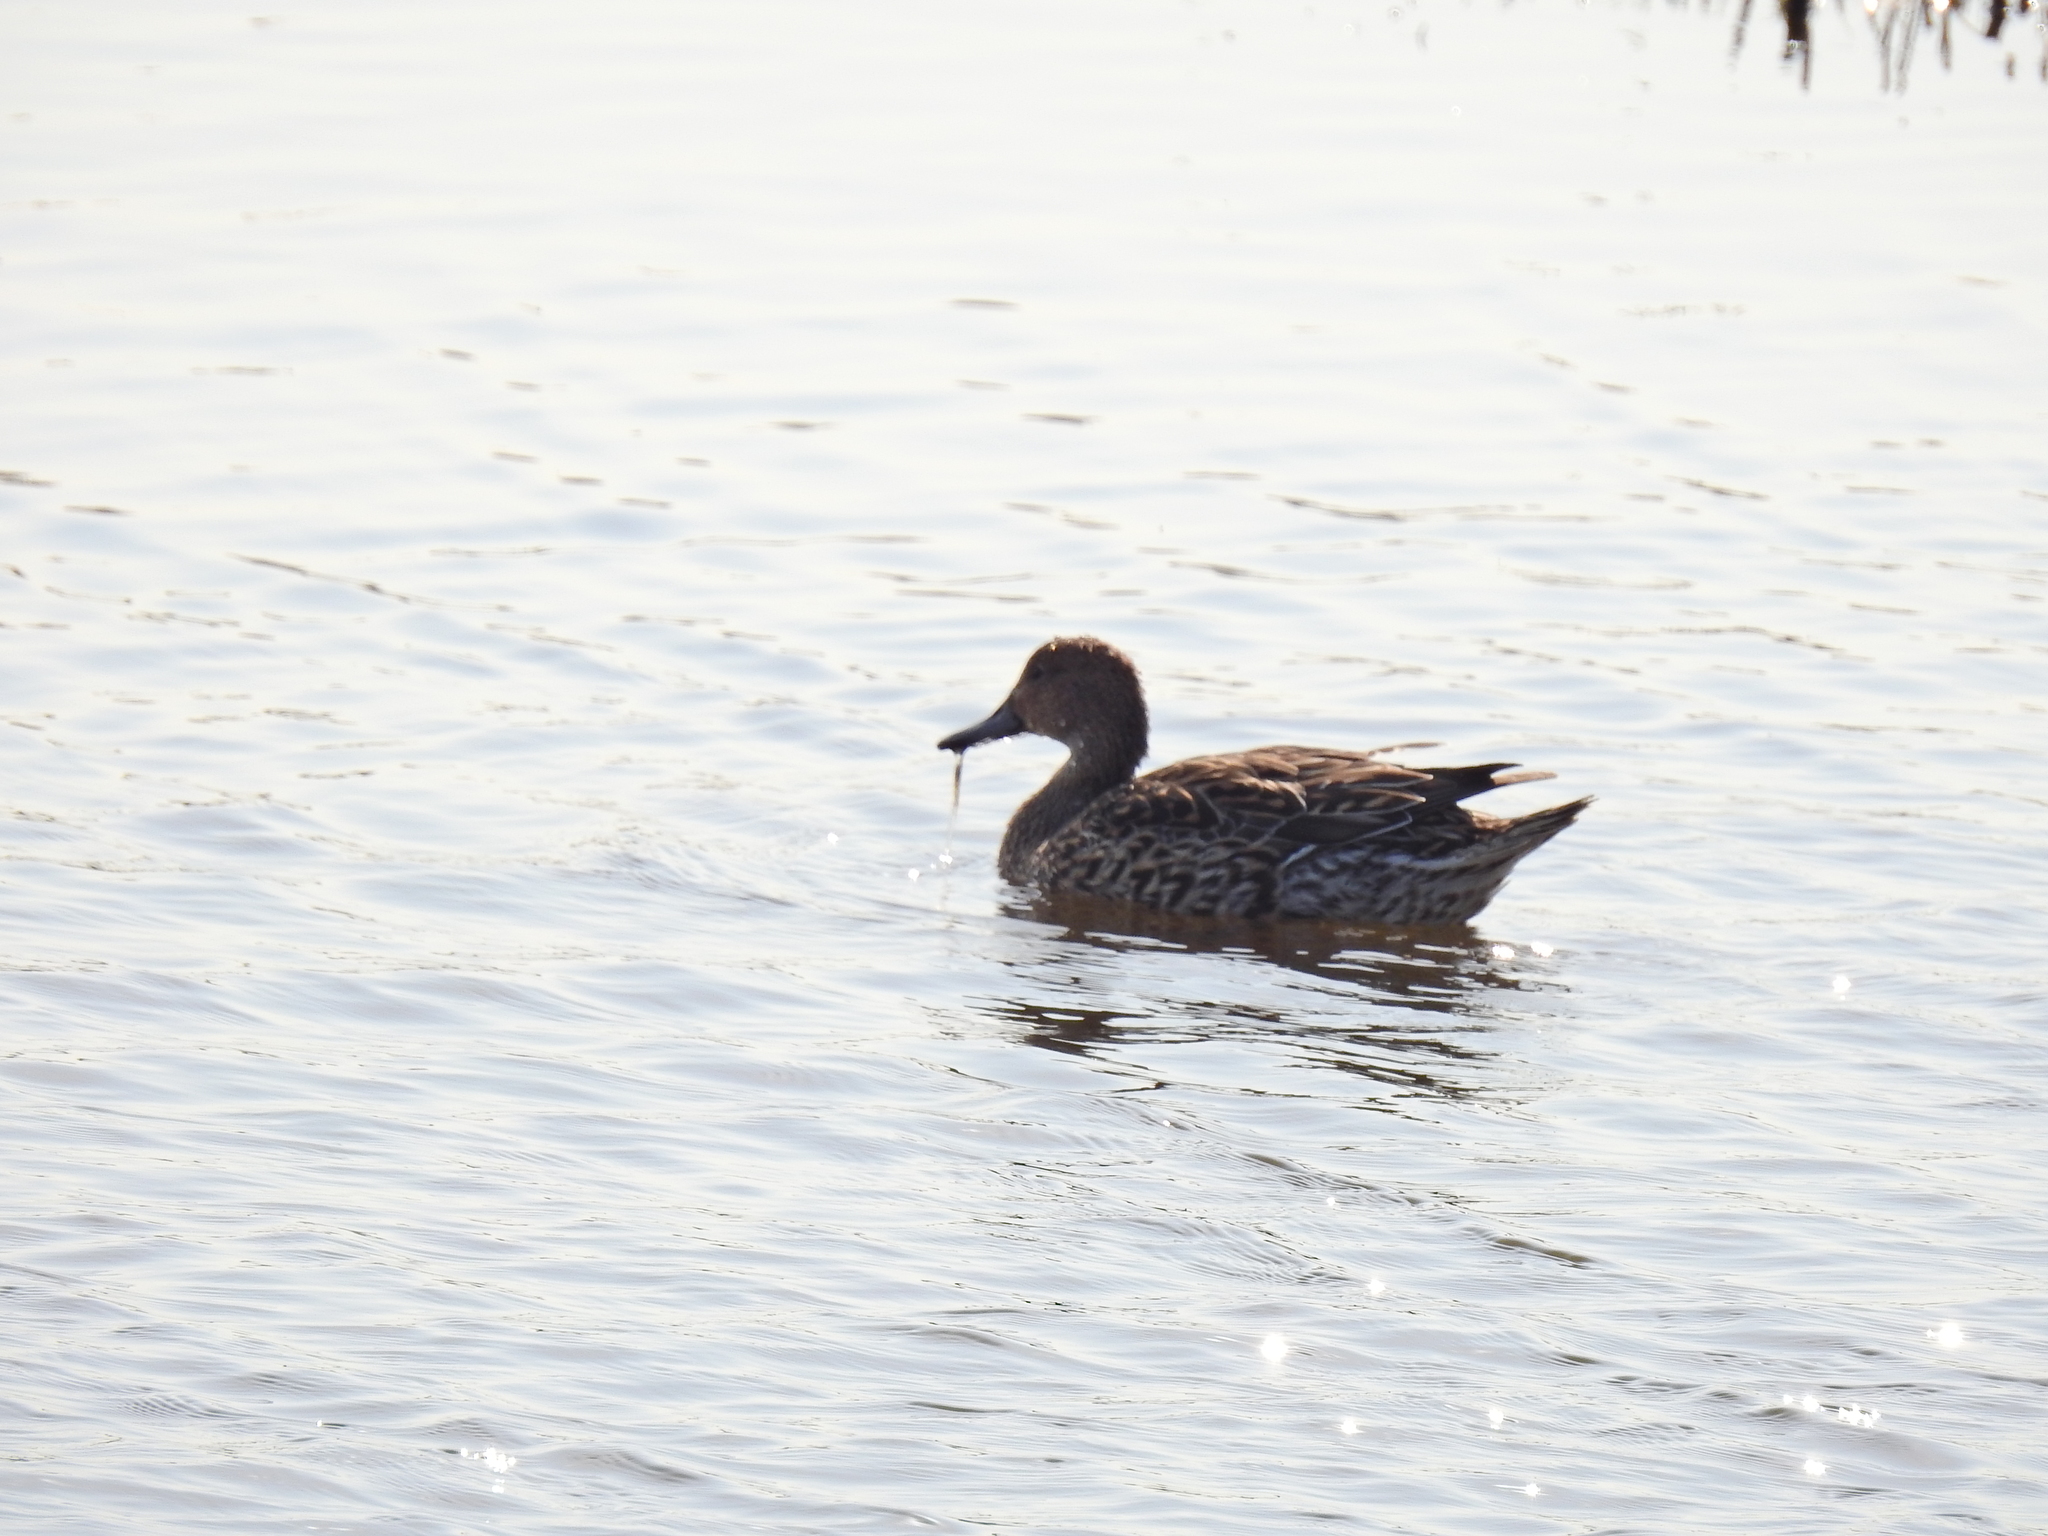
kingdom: Animalia
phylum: Chordata
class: Aves
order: Anseriformes
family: Anatidae
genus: Anas
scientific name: Anas acuta
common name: Northern pintail
